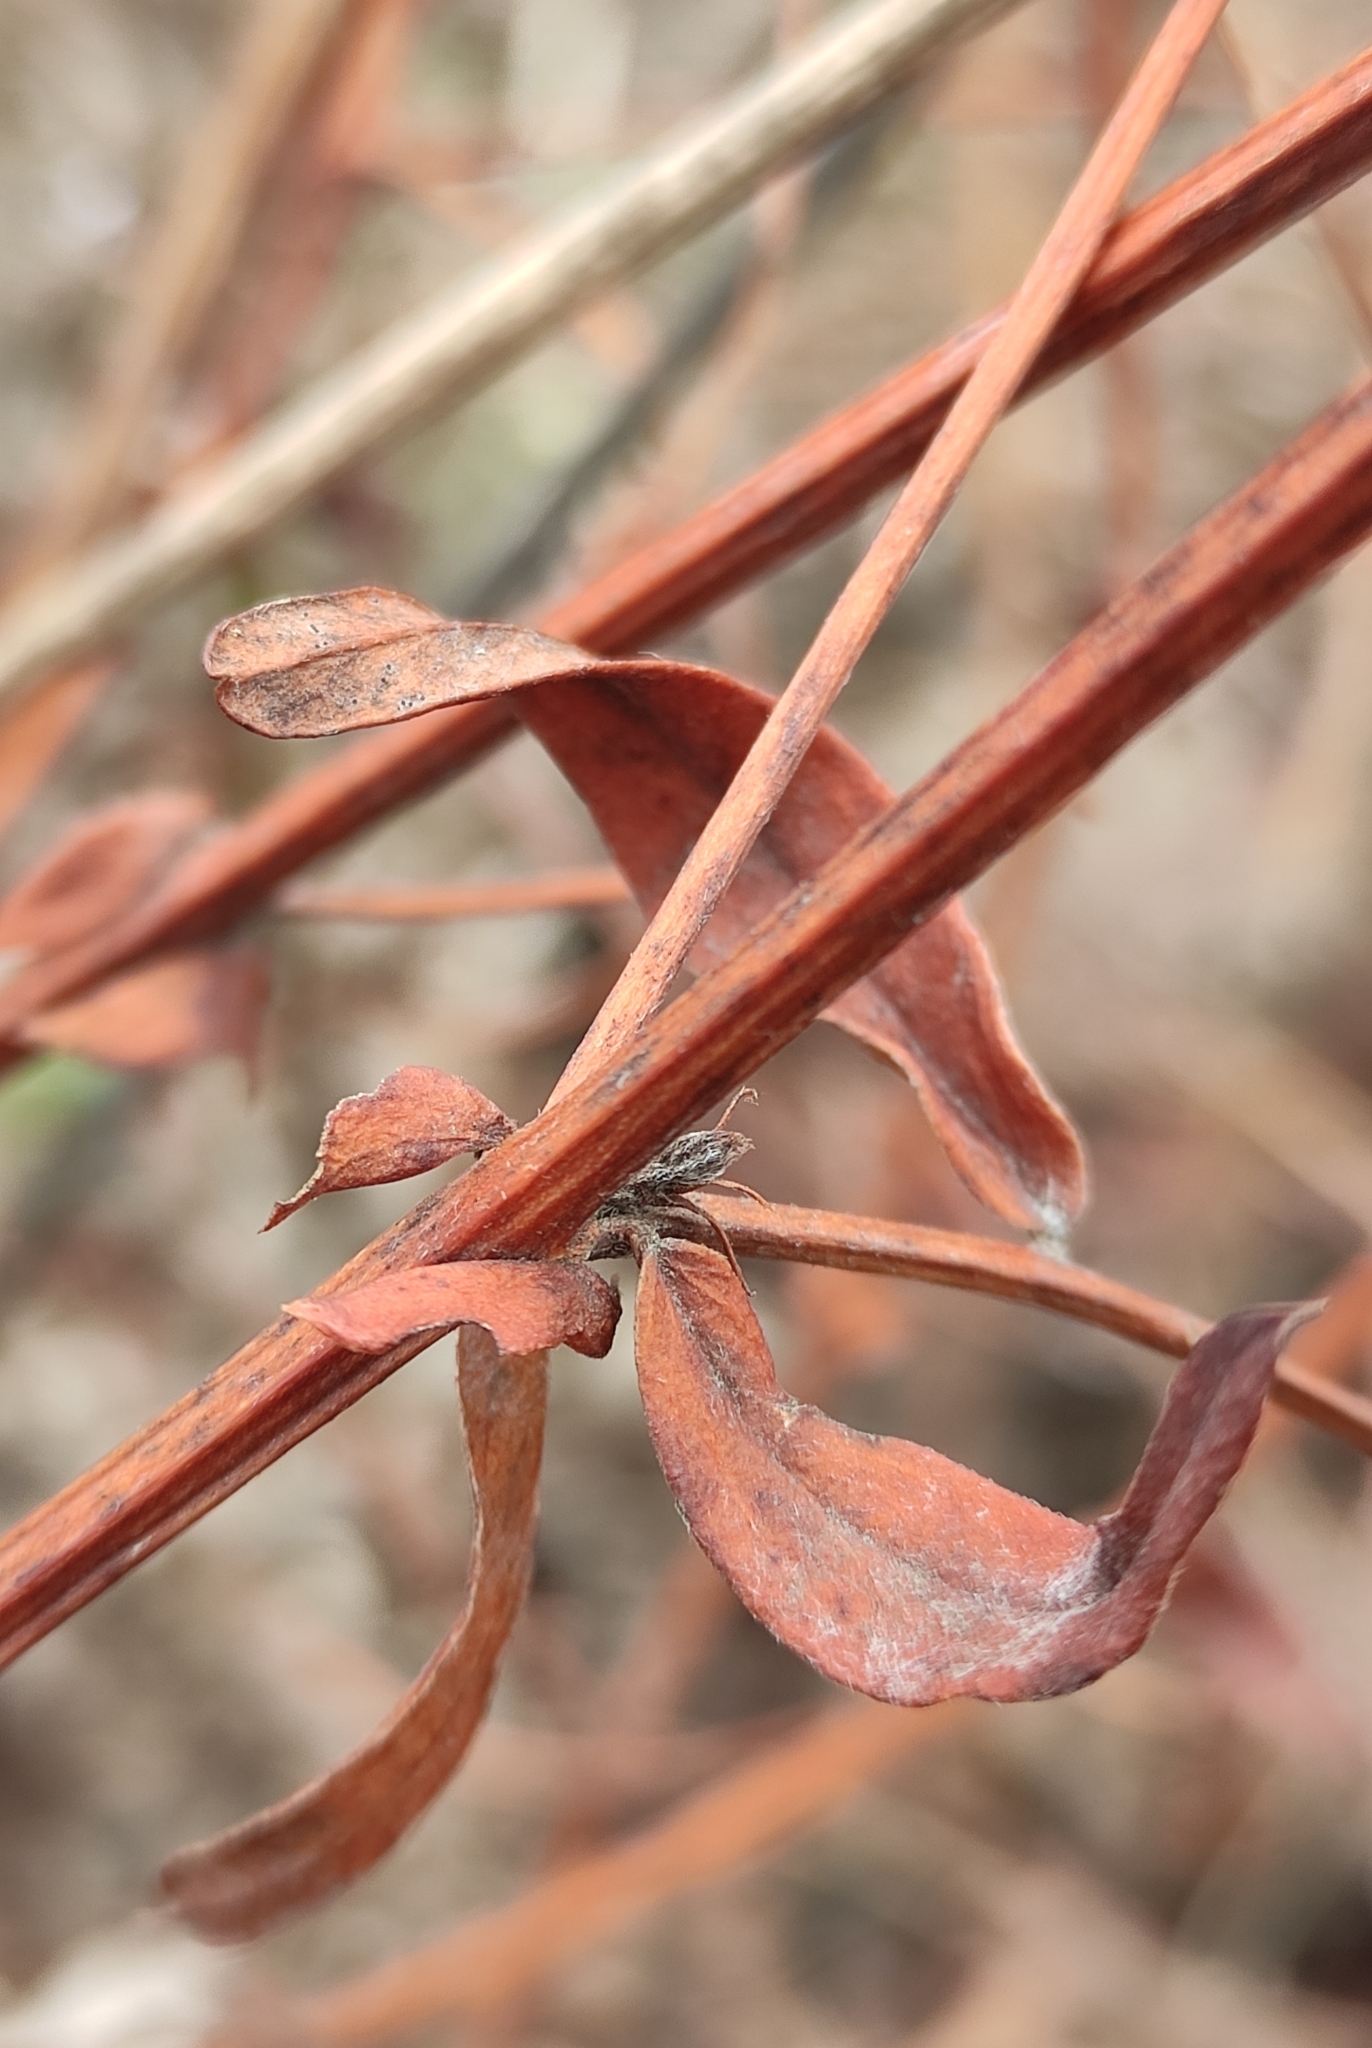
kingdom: Plantae
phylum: Tracheophyta
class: Magnoliopsida
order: Fabales
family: Fabaceae
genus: Vicia
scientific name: Vicia amoena
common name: Cheder ebs
